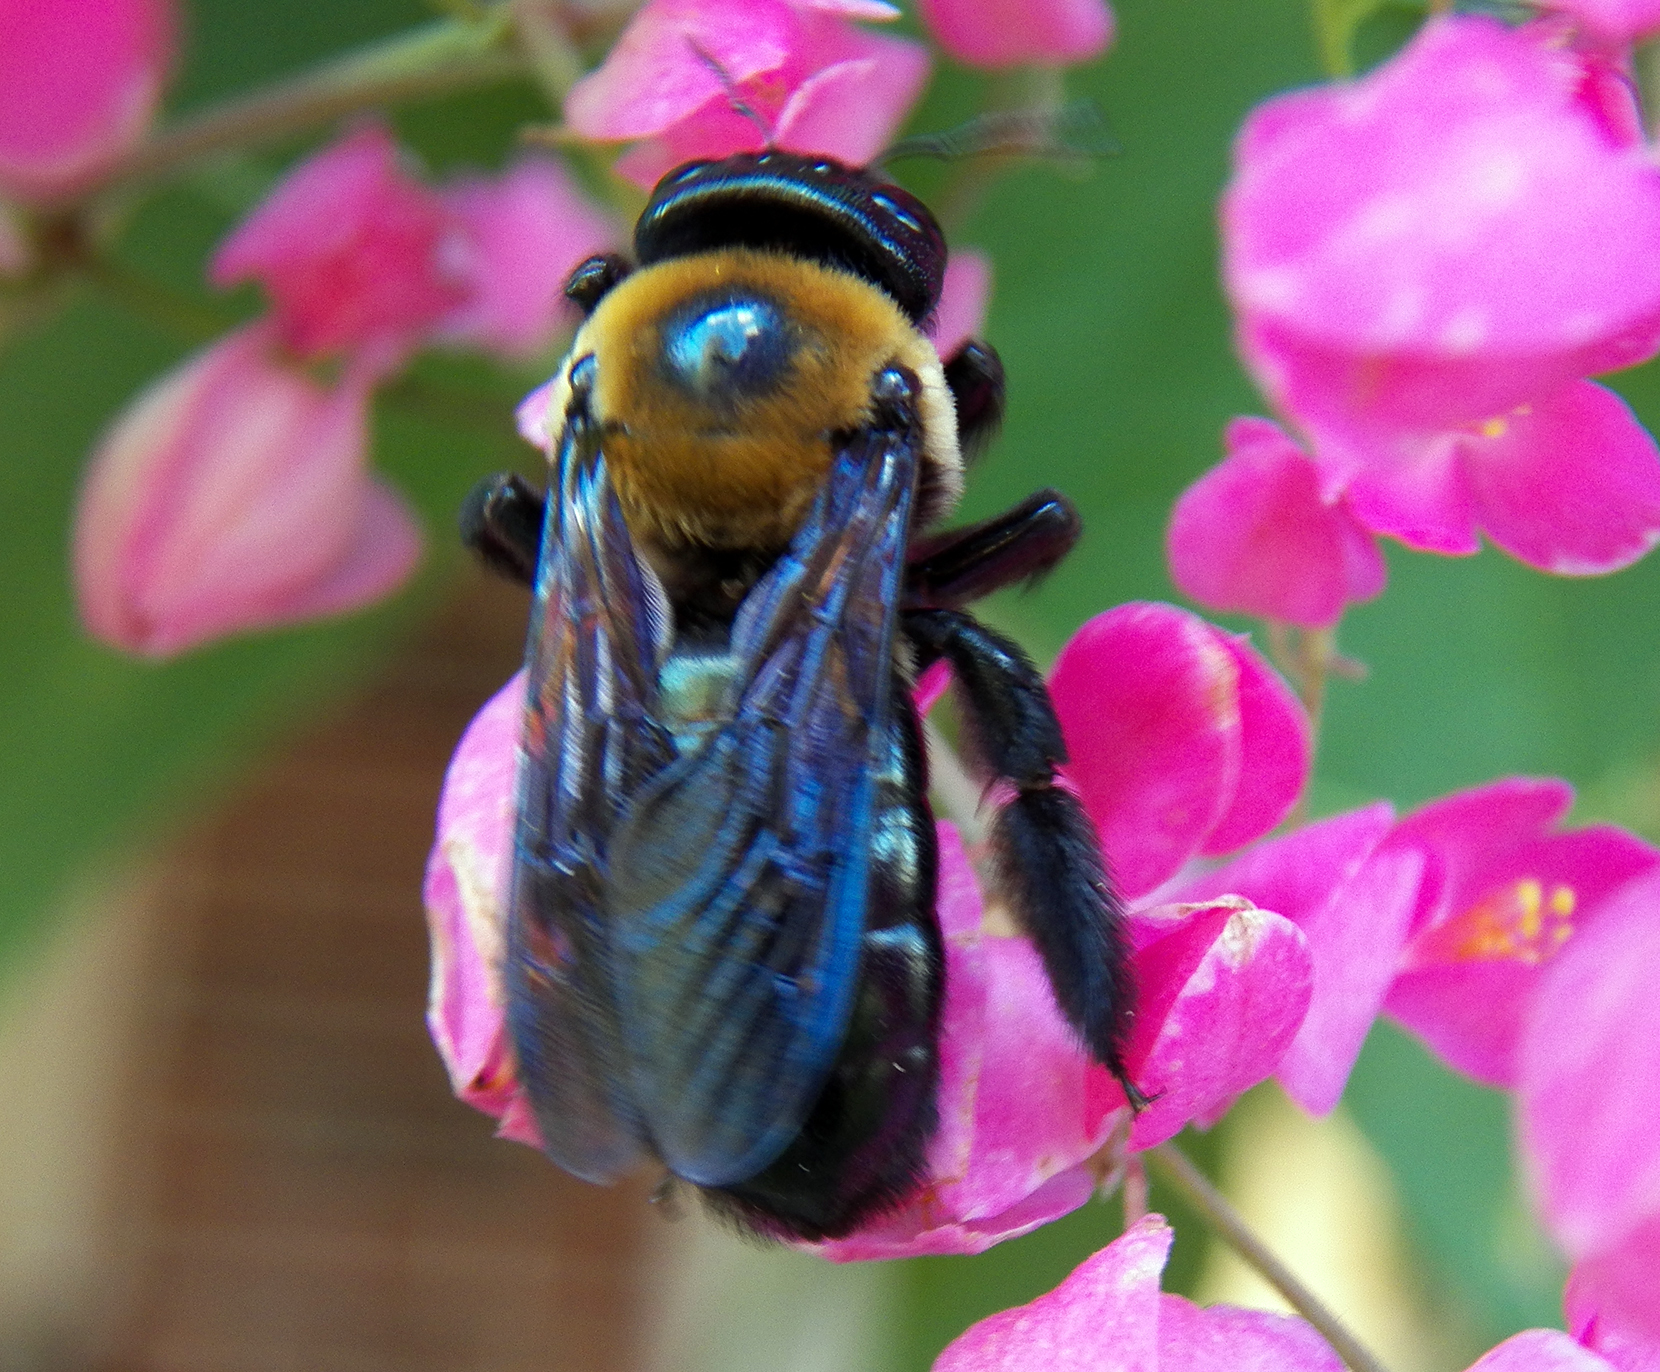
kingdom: Animalia
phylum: Arthropoda
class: Insecta
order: Hymenoptera
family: Apidae
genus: Xylocopa
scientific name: Xylocopa micans
